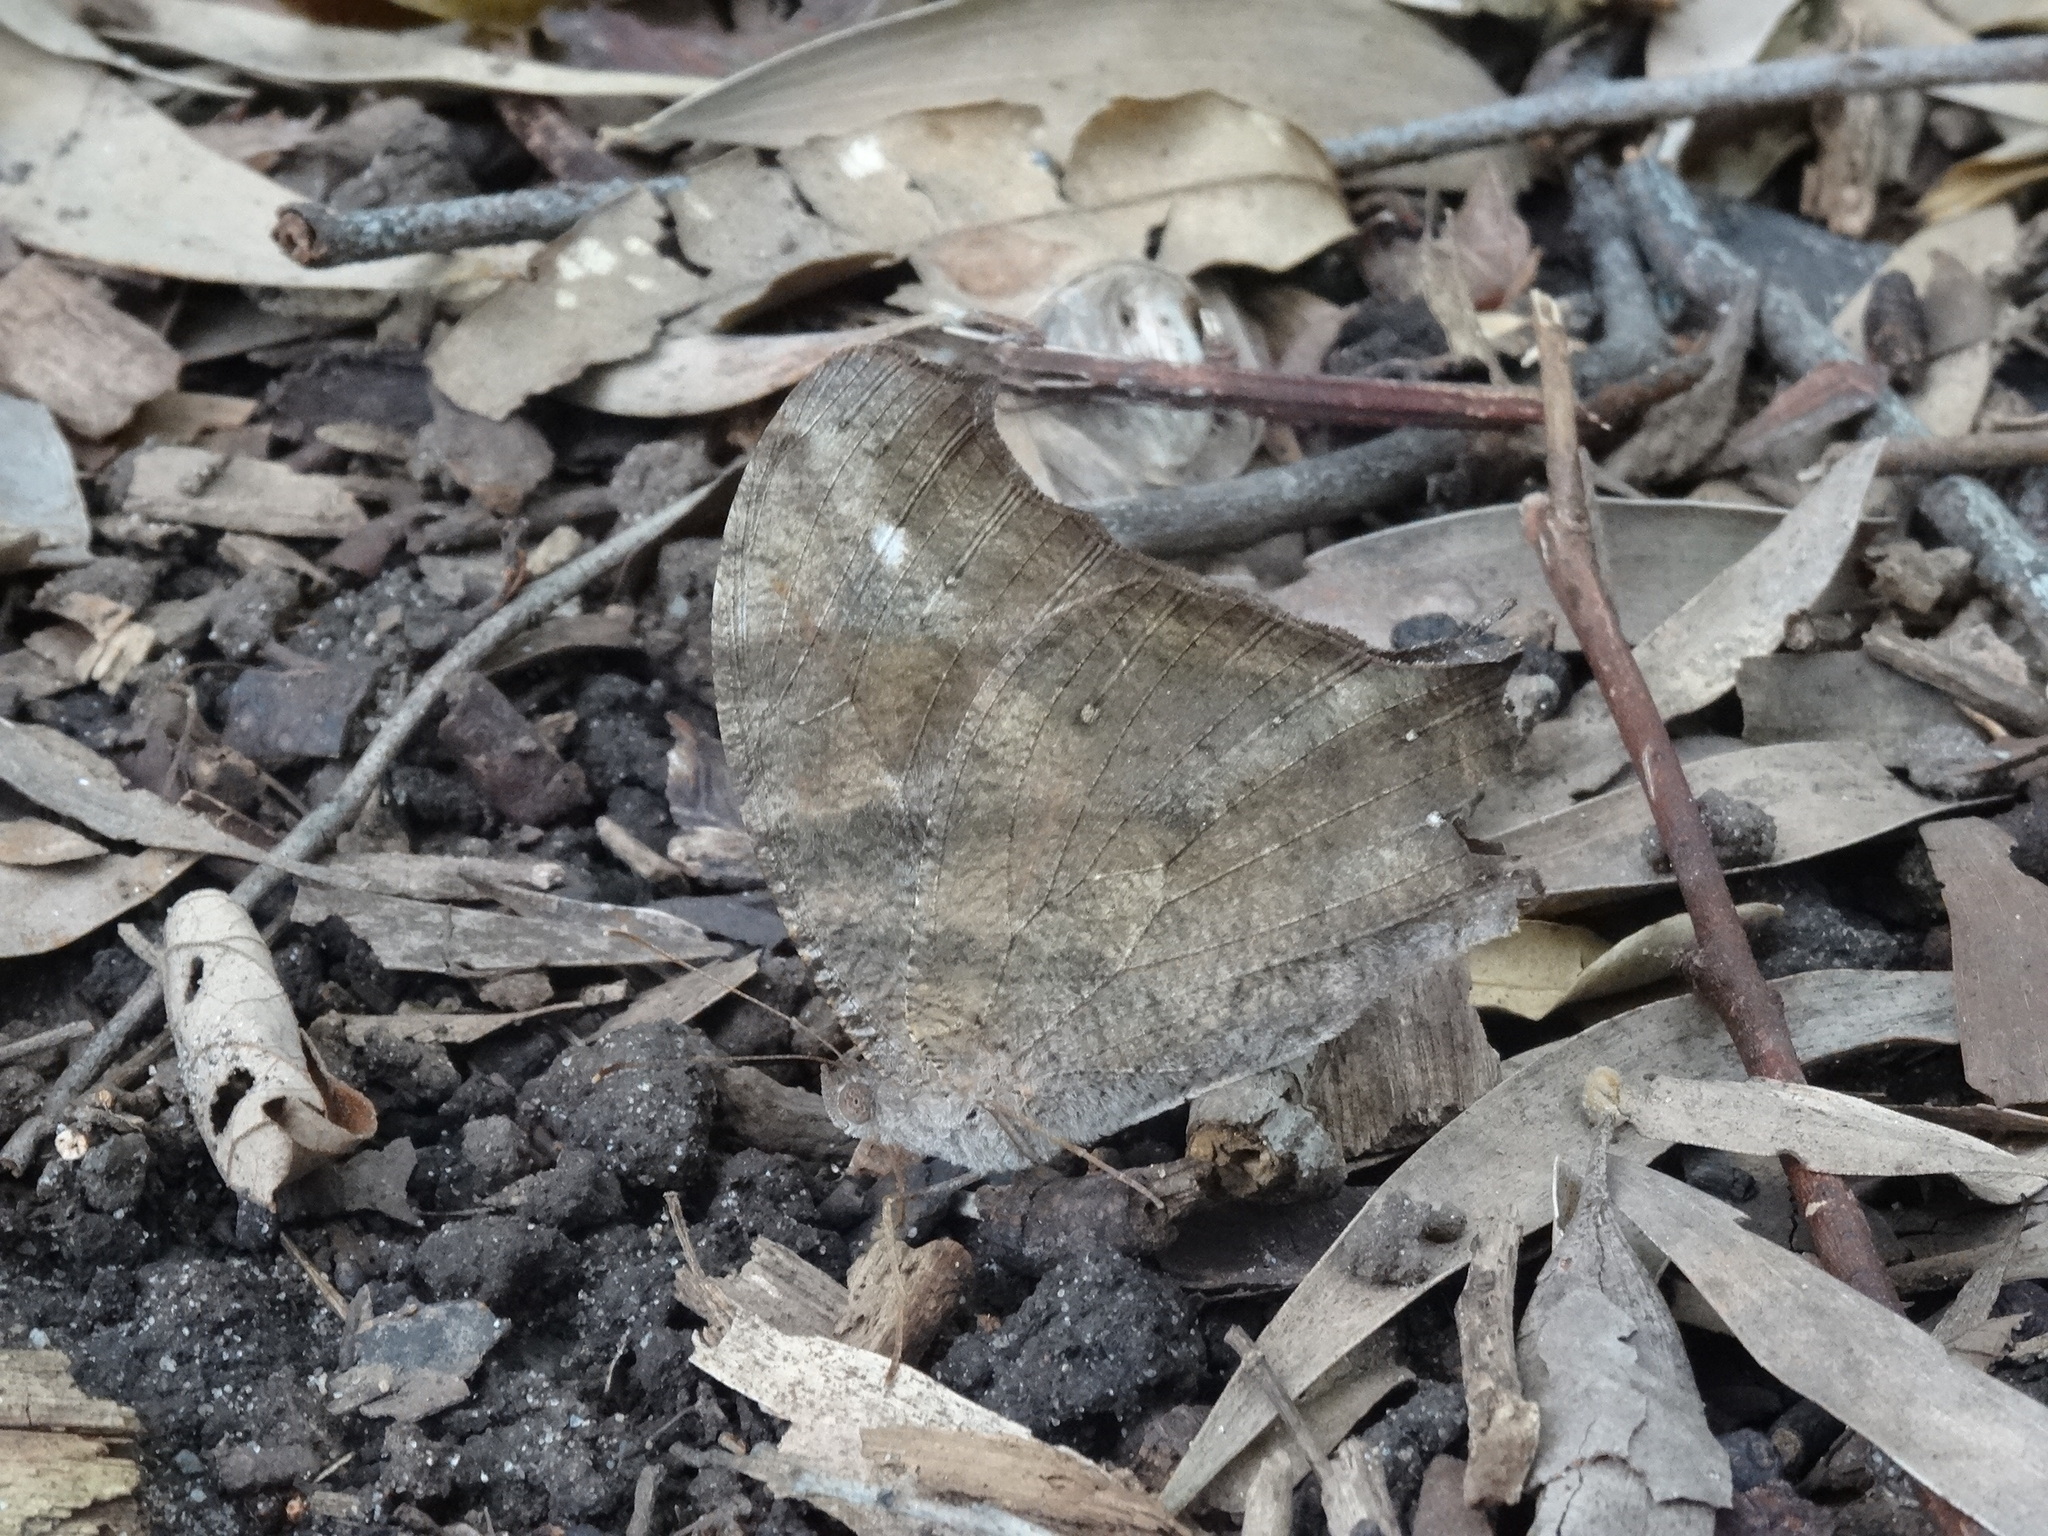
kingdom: Animalia
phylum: Arthropoda
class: Insecta
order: Lepidoptera
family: Nymphalidae
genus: Melanitis
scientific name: Melanitis leda
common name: Twilight brown
